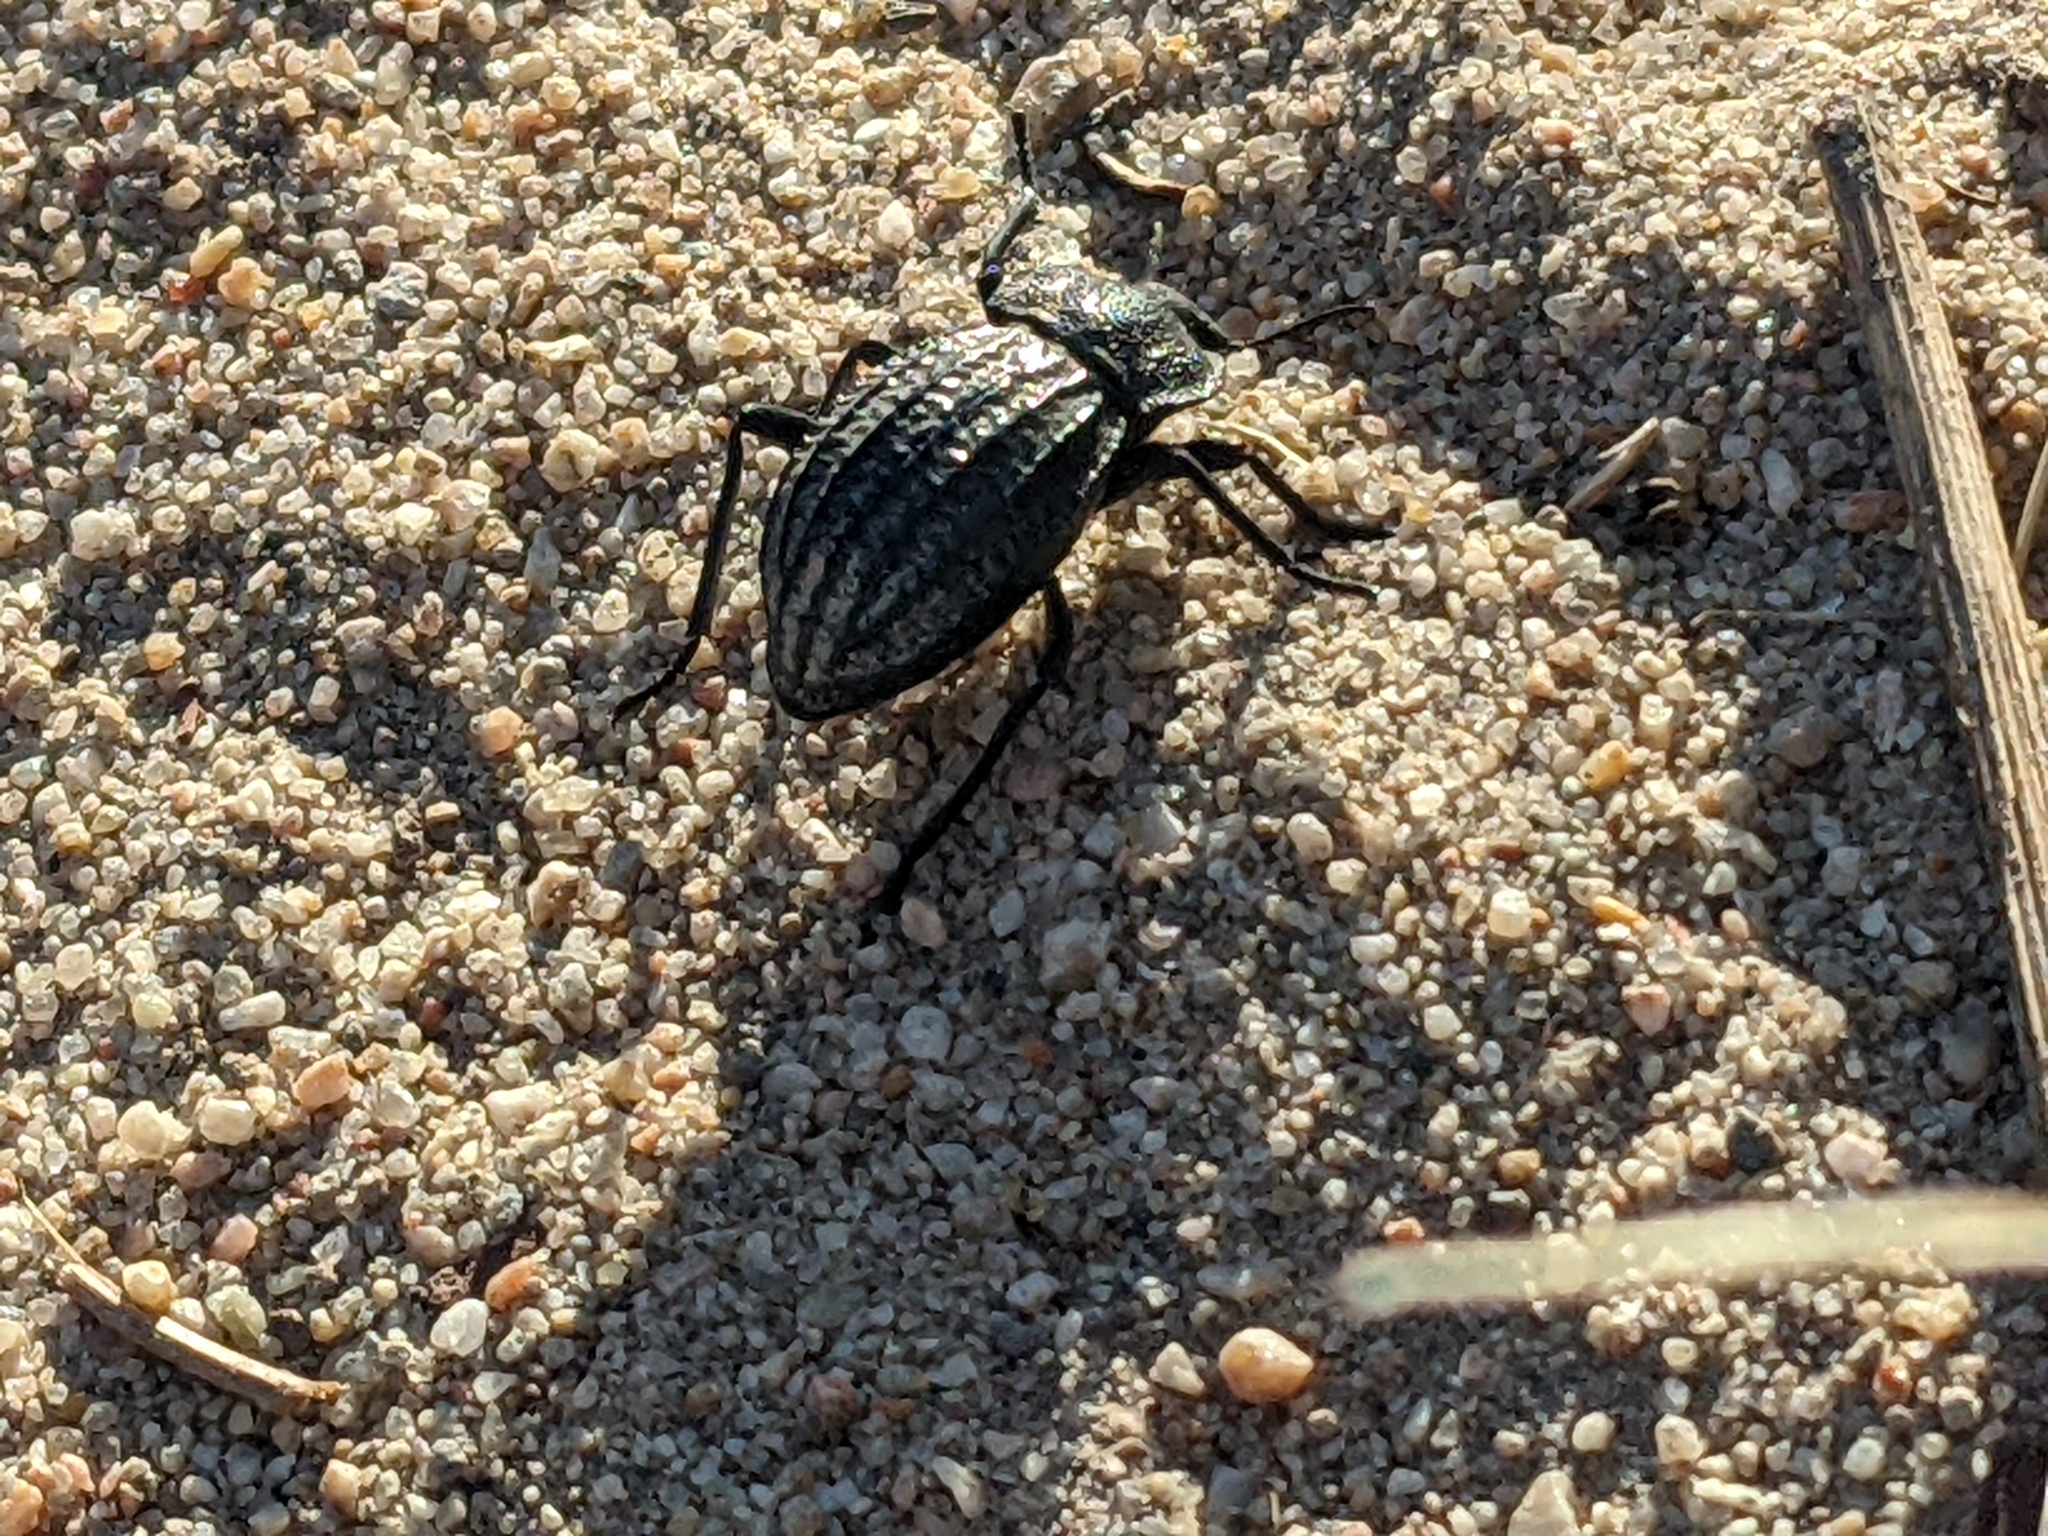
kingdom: Animalia
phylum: Arthropoda
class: Insecta
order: Coleoptera
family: Tenebrionidae
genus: Philolithus
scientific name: Philolithus sordidus
